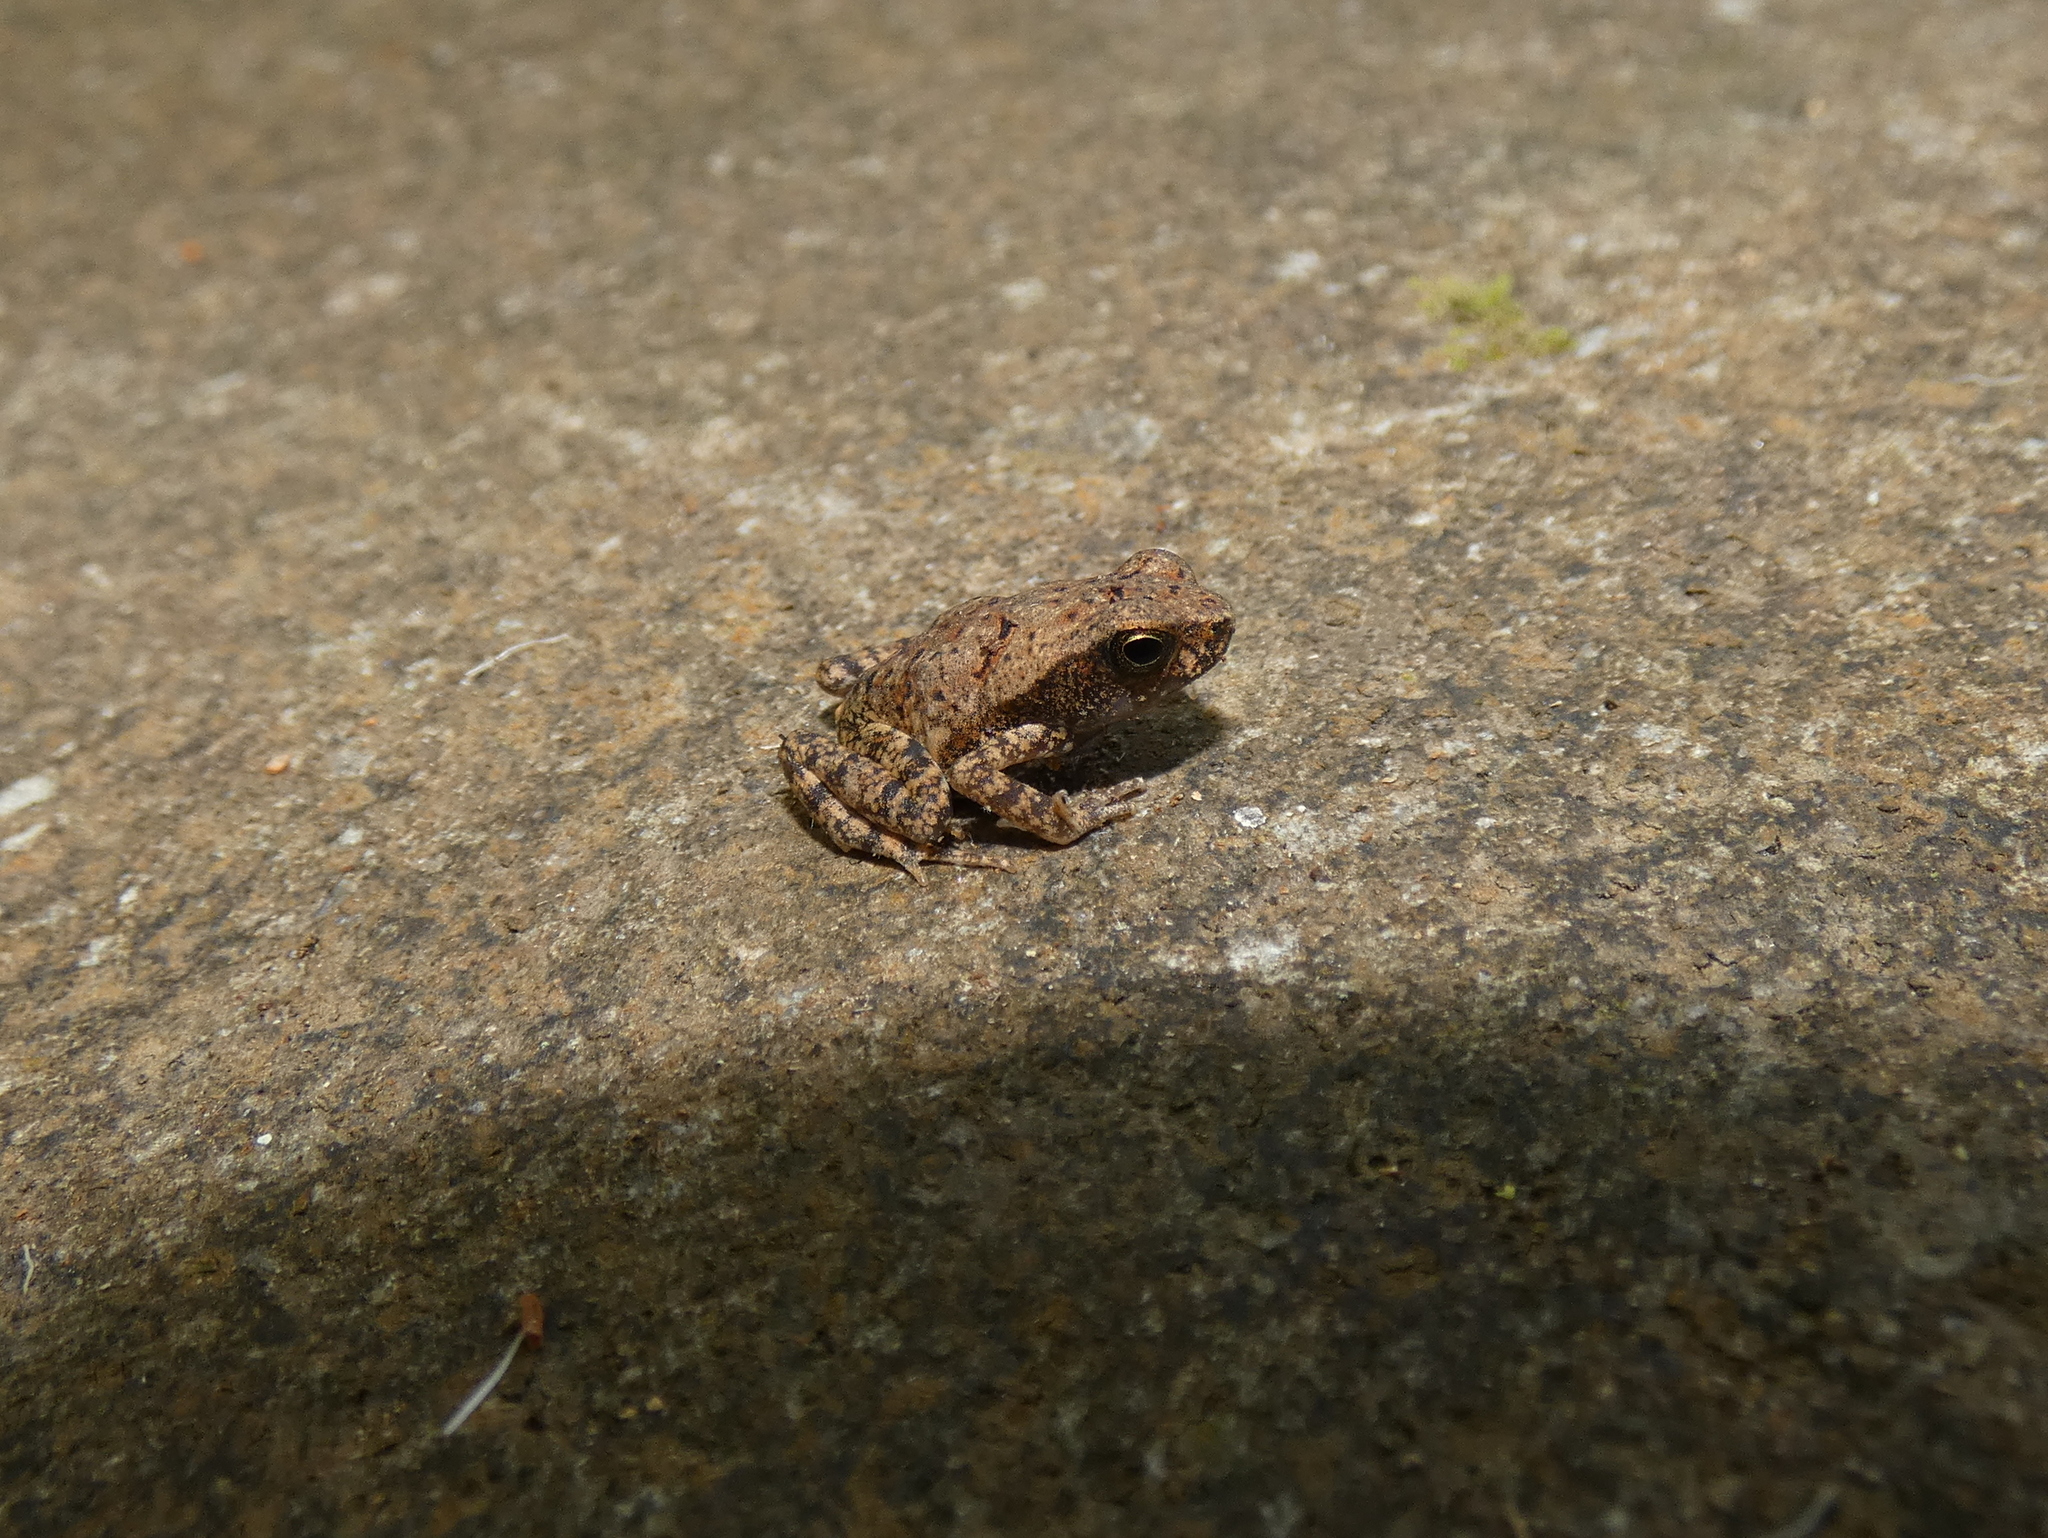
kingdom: Animalia
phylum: Chordata
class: Amphibia
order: Anura
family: Bufonidae
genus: Rhaebo
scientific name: Rhaebo haematiticus
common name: Truando toad
